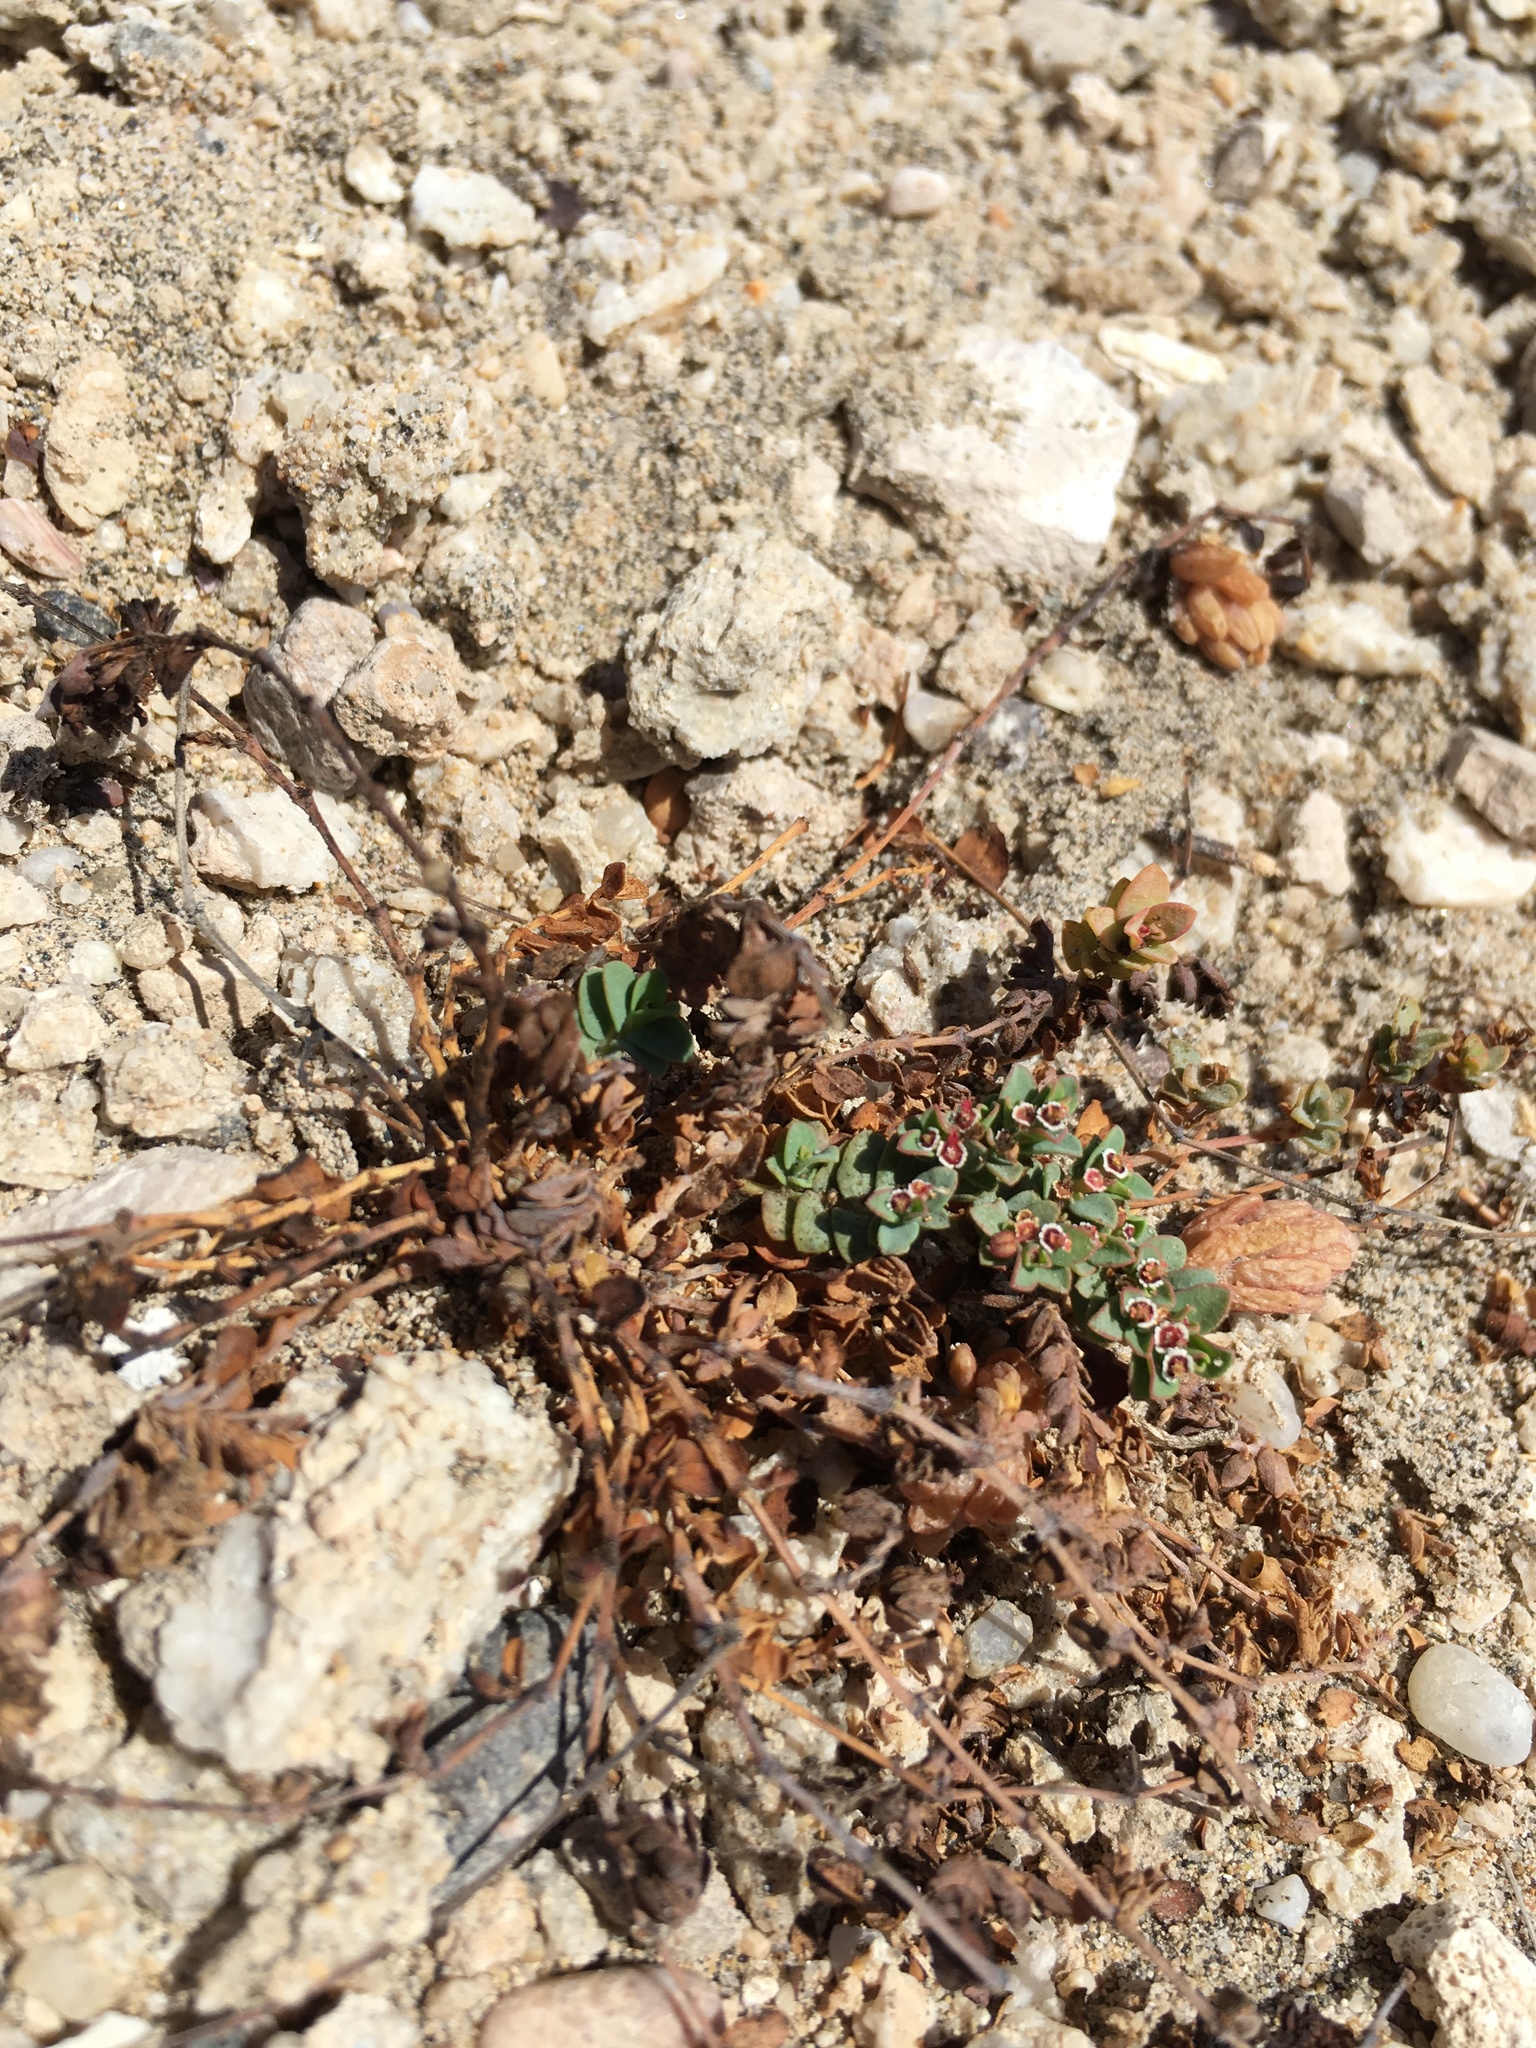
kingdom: Plantae
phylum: Tracheophyta
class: Magnoliopsida
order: Malpighiales
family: Euphorbiaceae
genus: Euphorbia
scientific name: Euphorbia polycarpa
